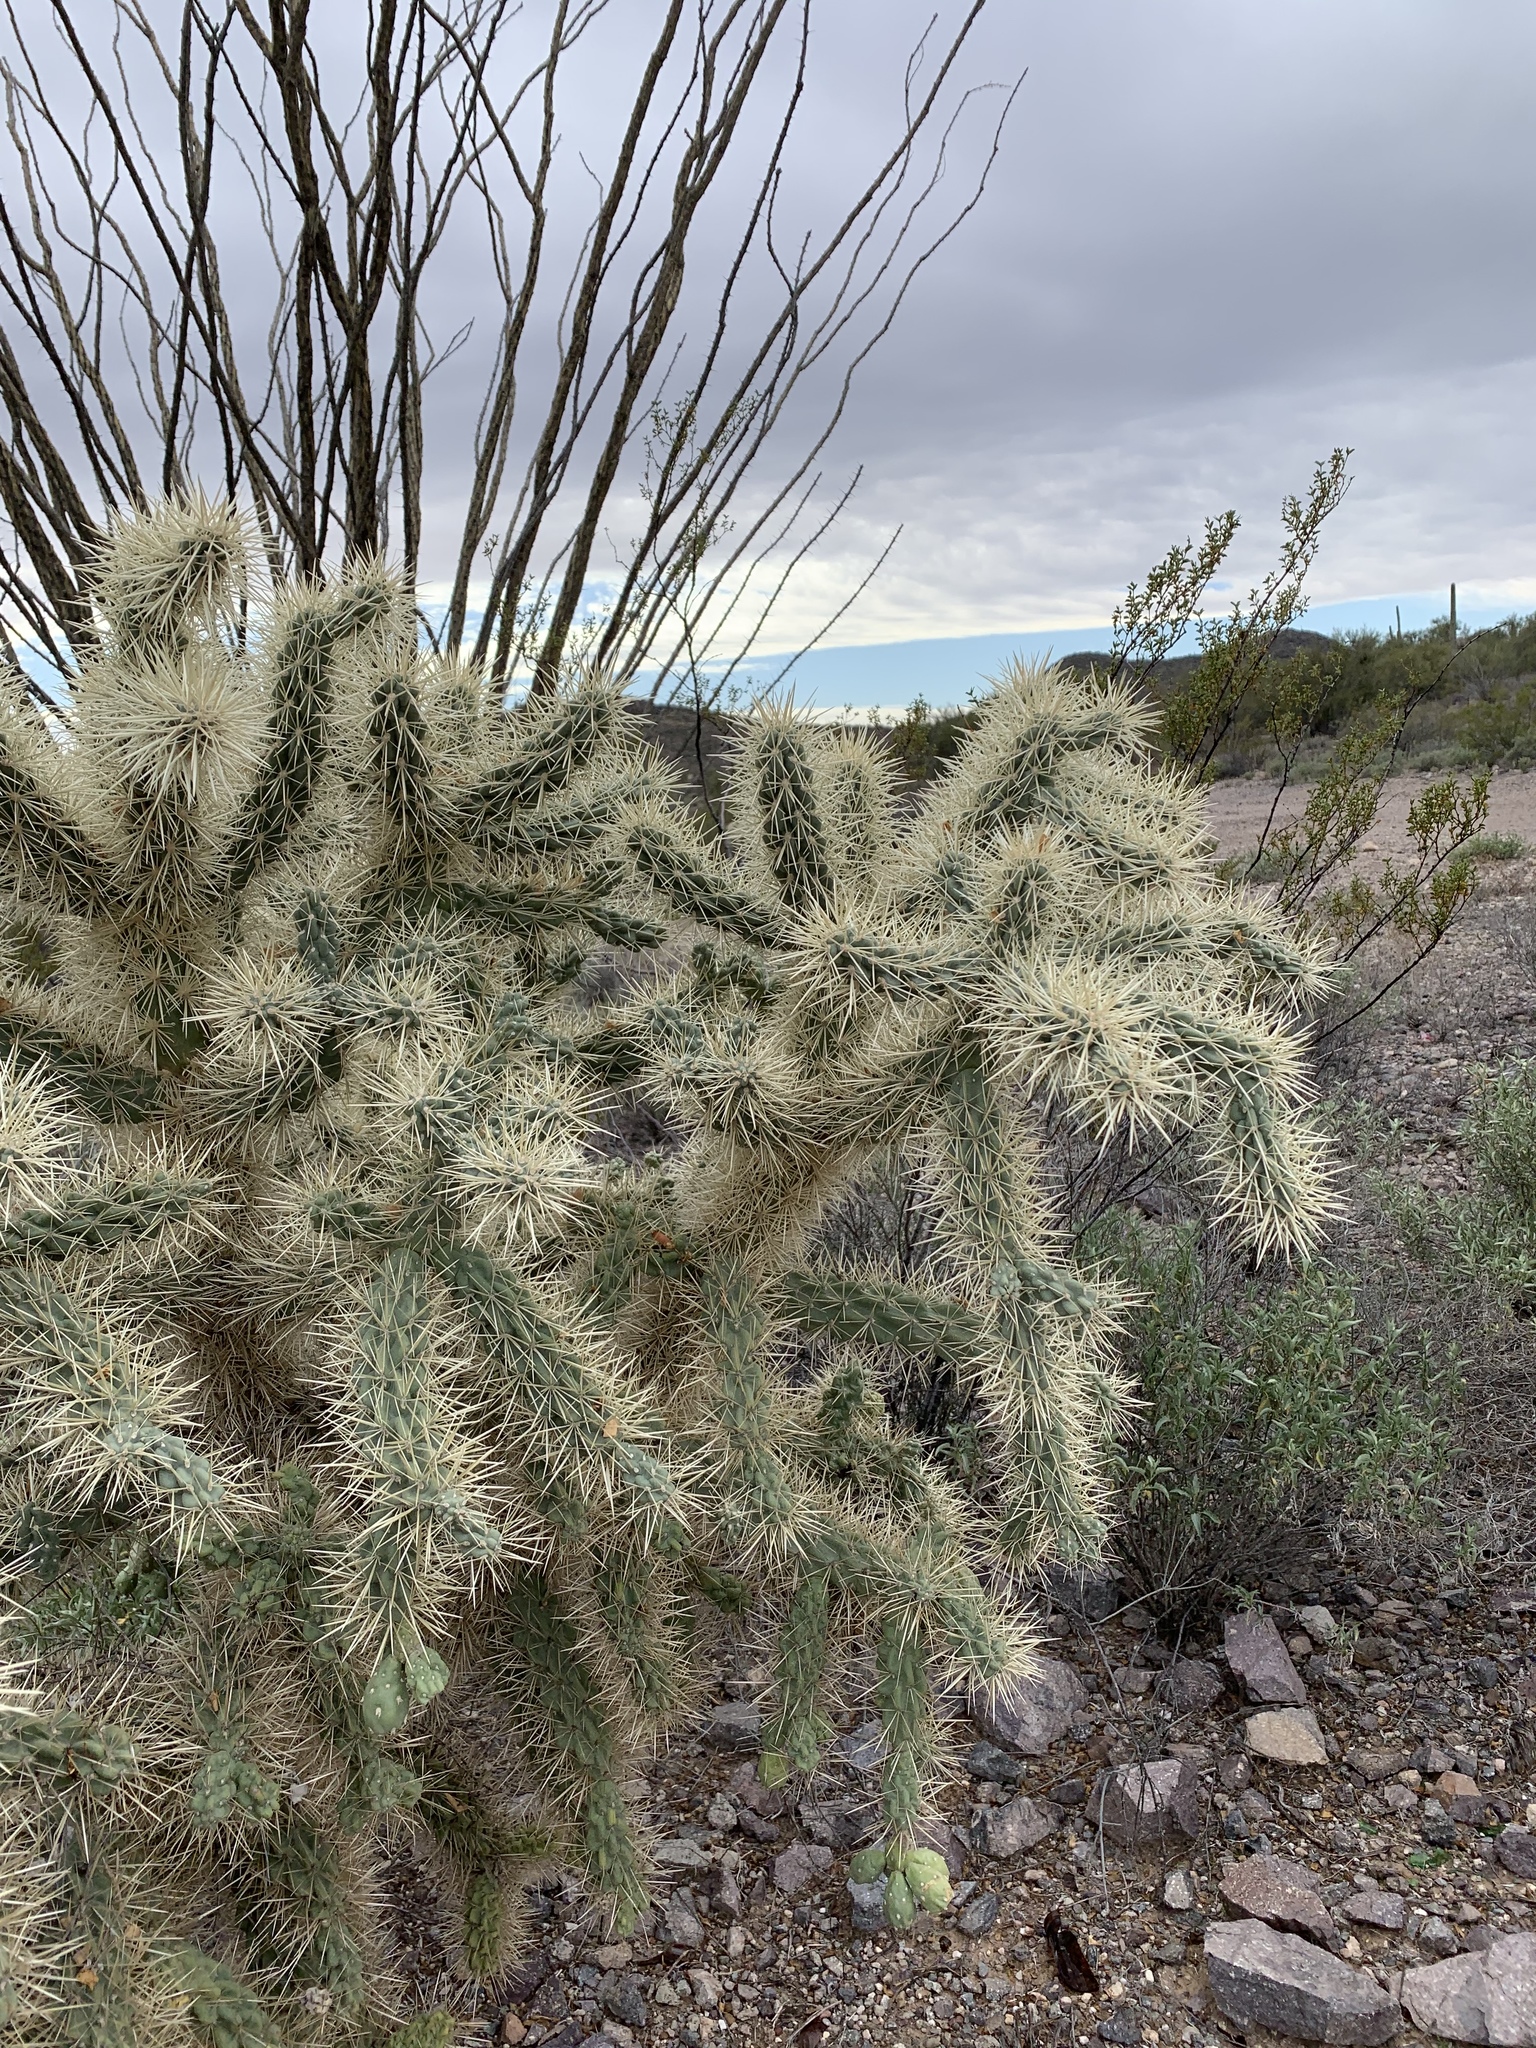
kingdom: Plantae
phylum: Tracheophyta
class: Magnoliopsida
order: Caryophyllales
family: Cactaceae
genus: Cylindropuntia
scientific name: Cylindropuntia fulgida
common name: Jumping cholla
